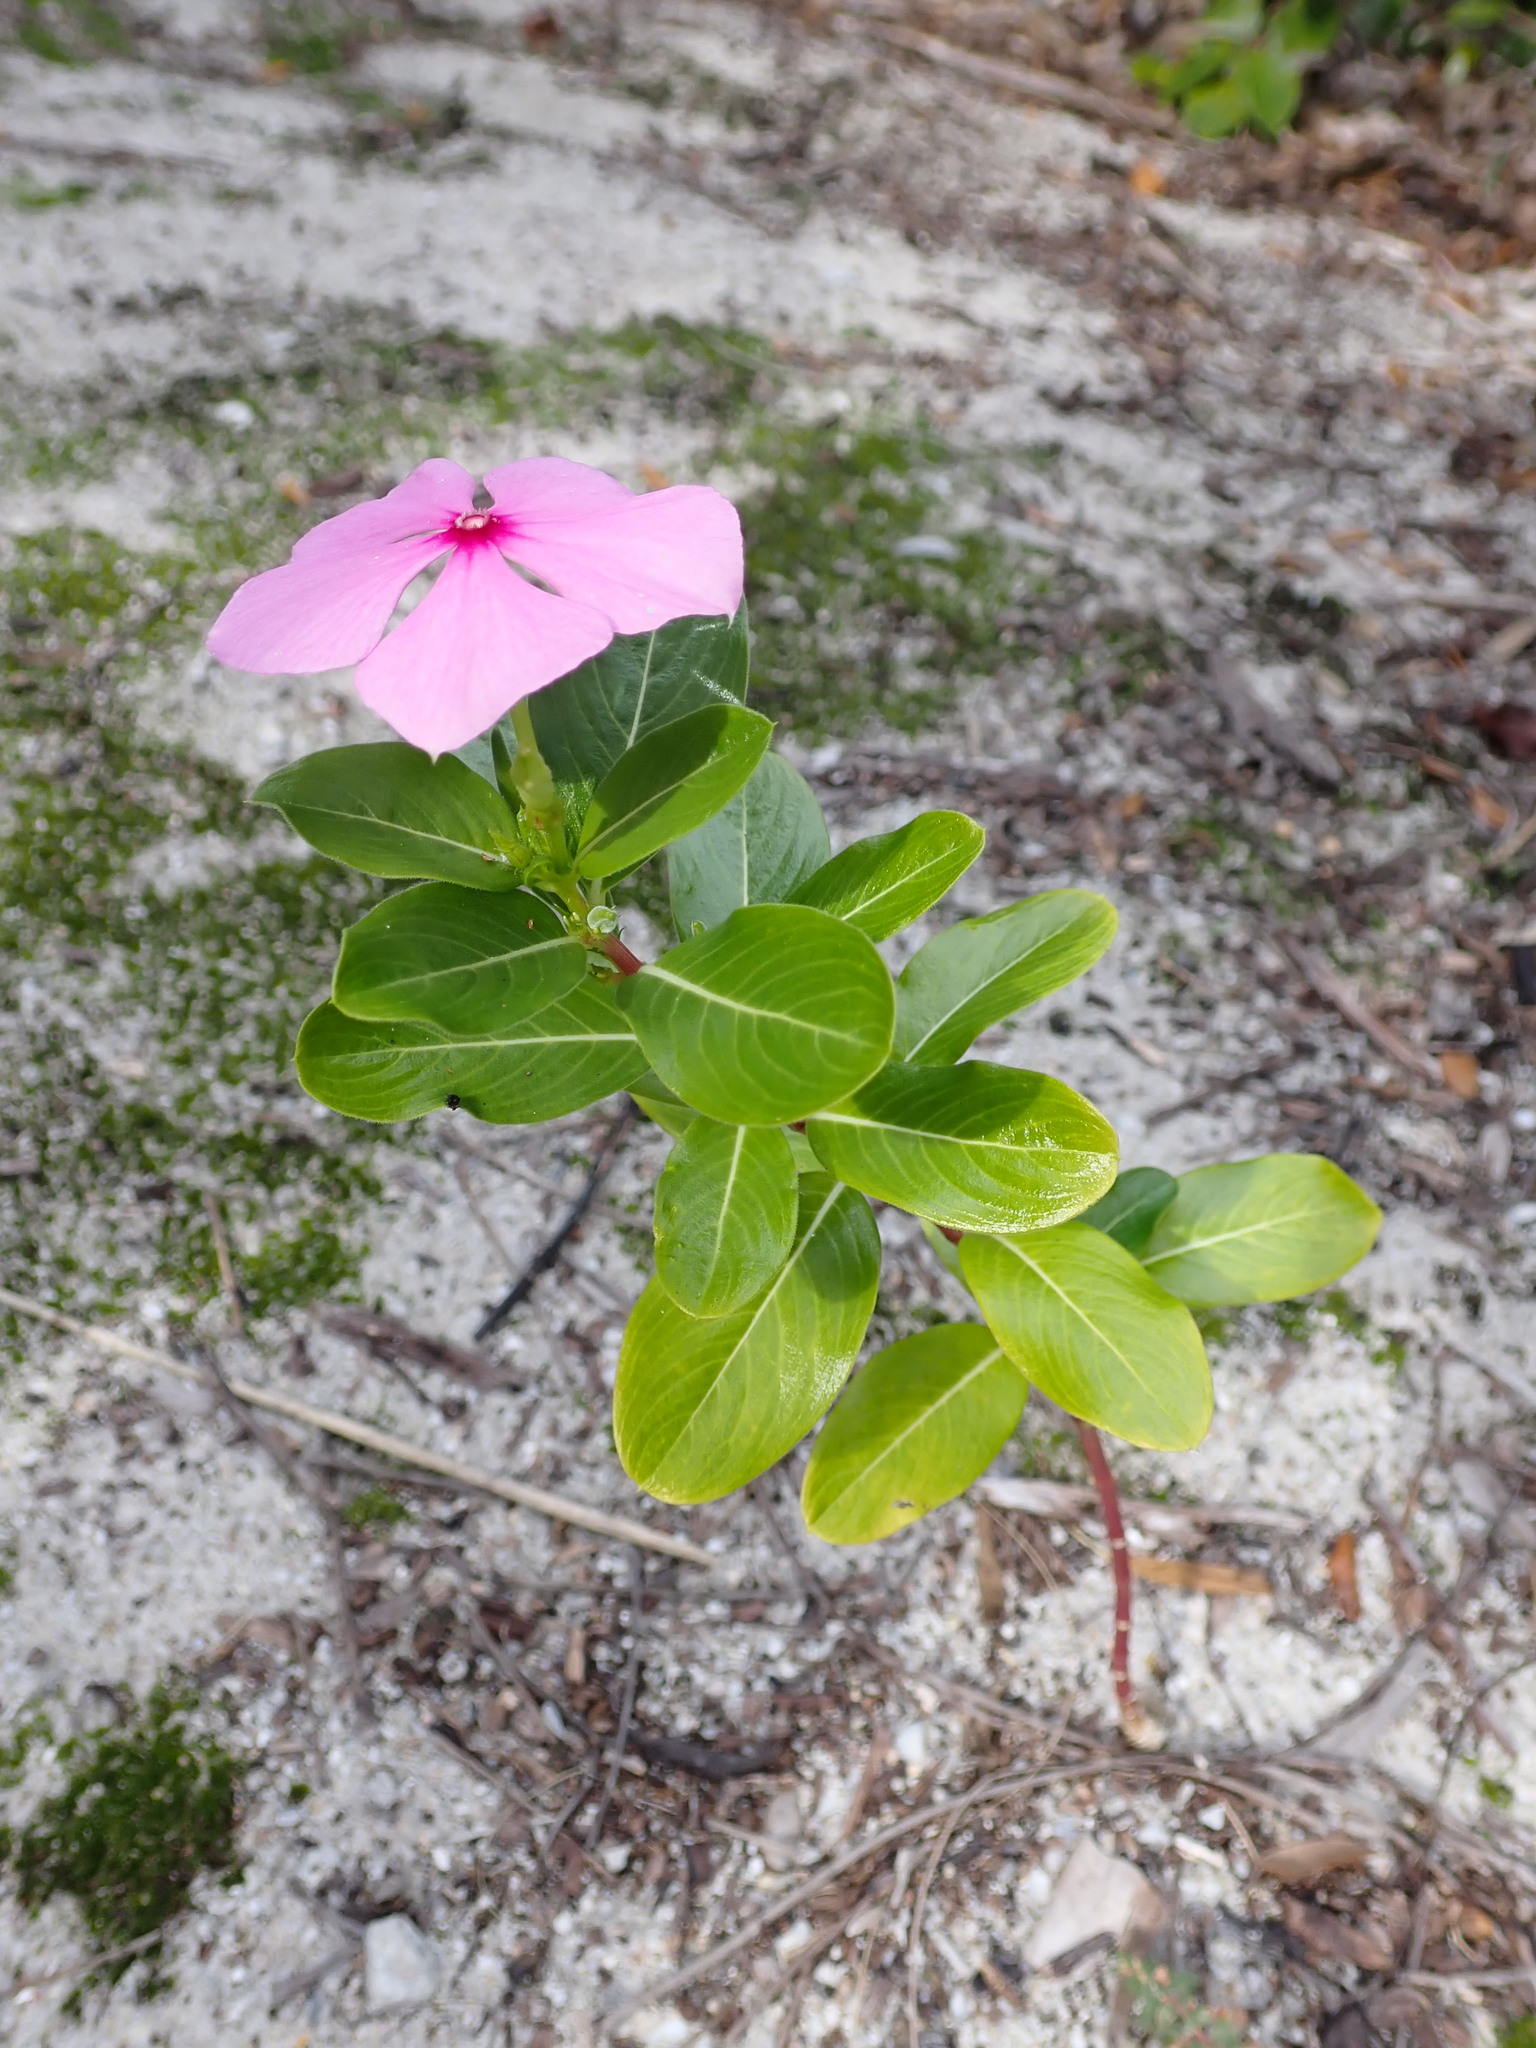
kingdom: Plantae
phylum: Tracheophyta
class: Magnoliopsida
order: Gentianales
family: Apocynaceae
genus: Catharanthus
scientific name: Catharanthus roseus
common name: Madagascar periwinkle
